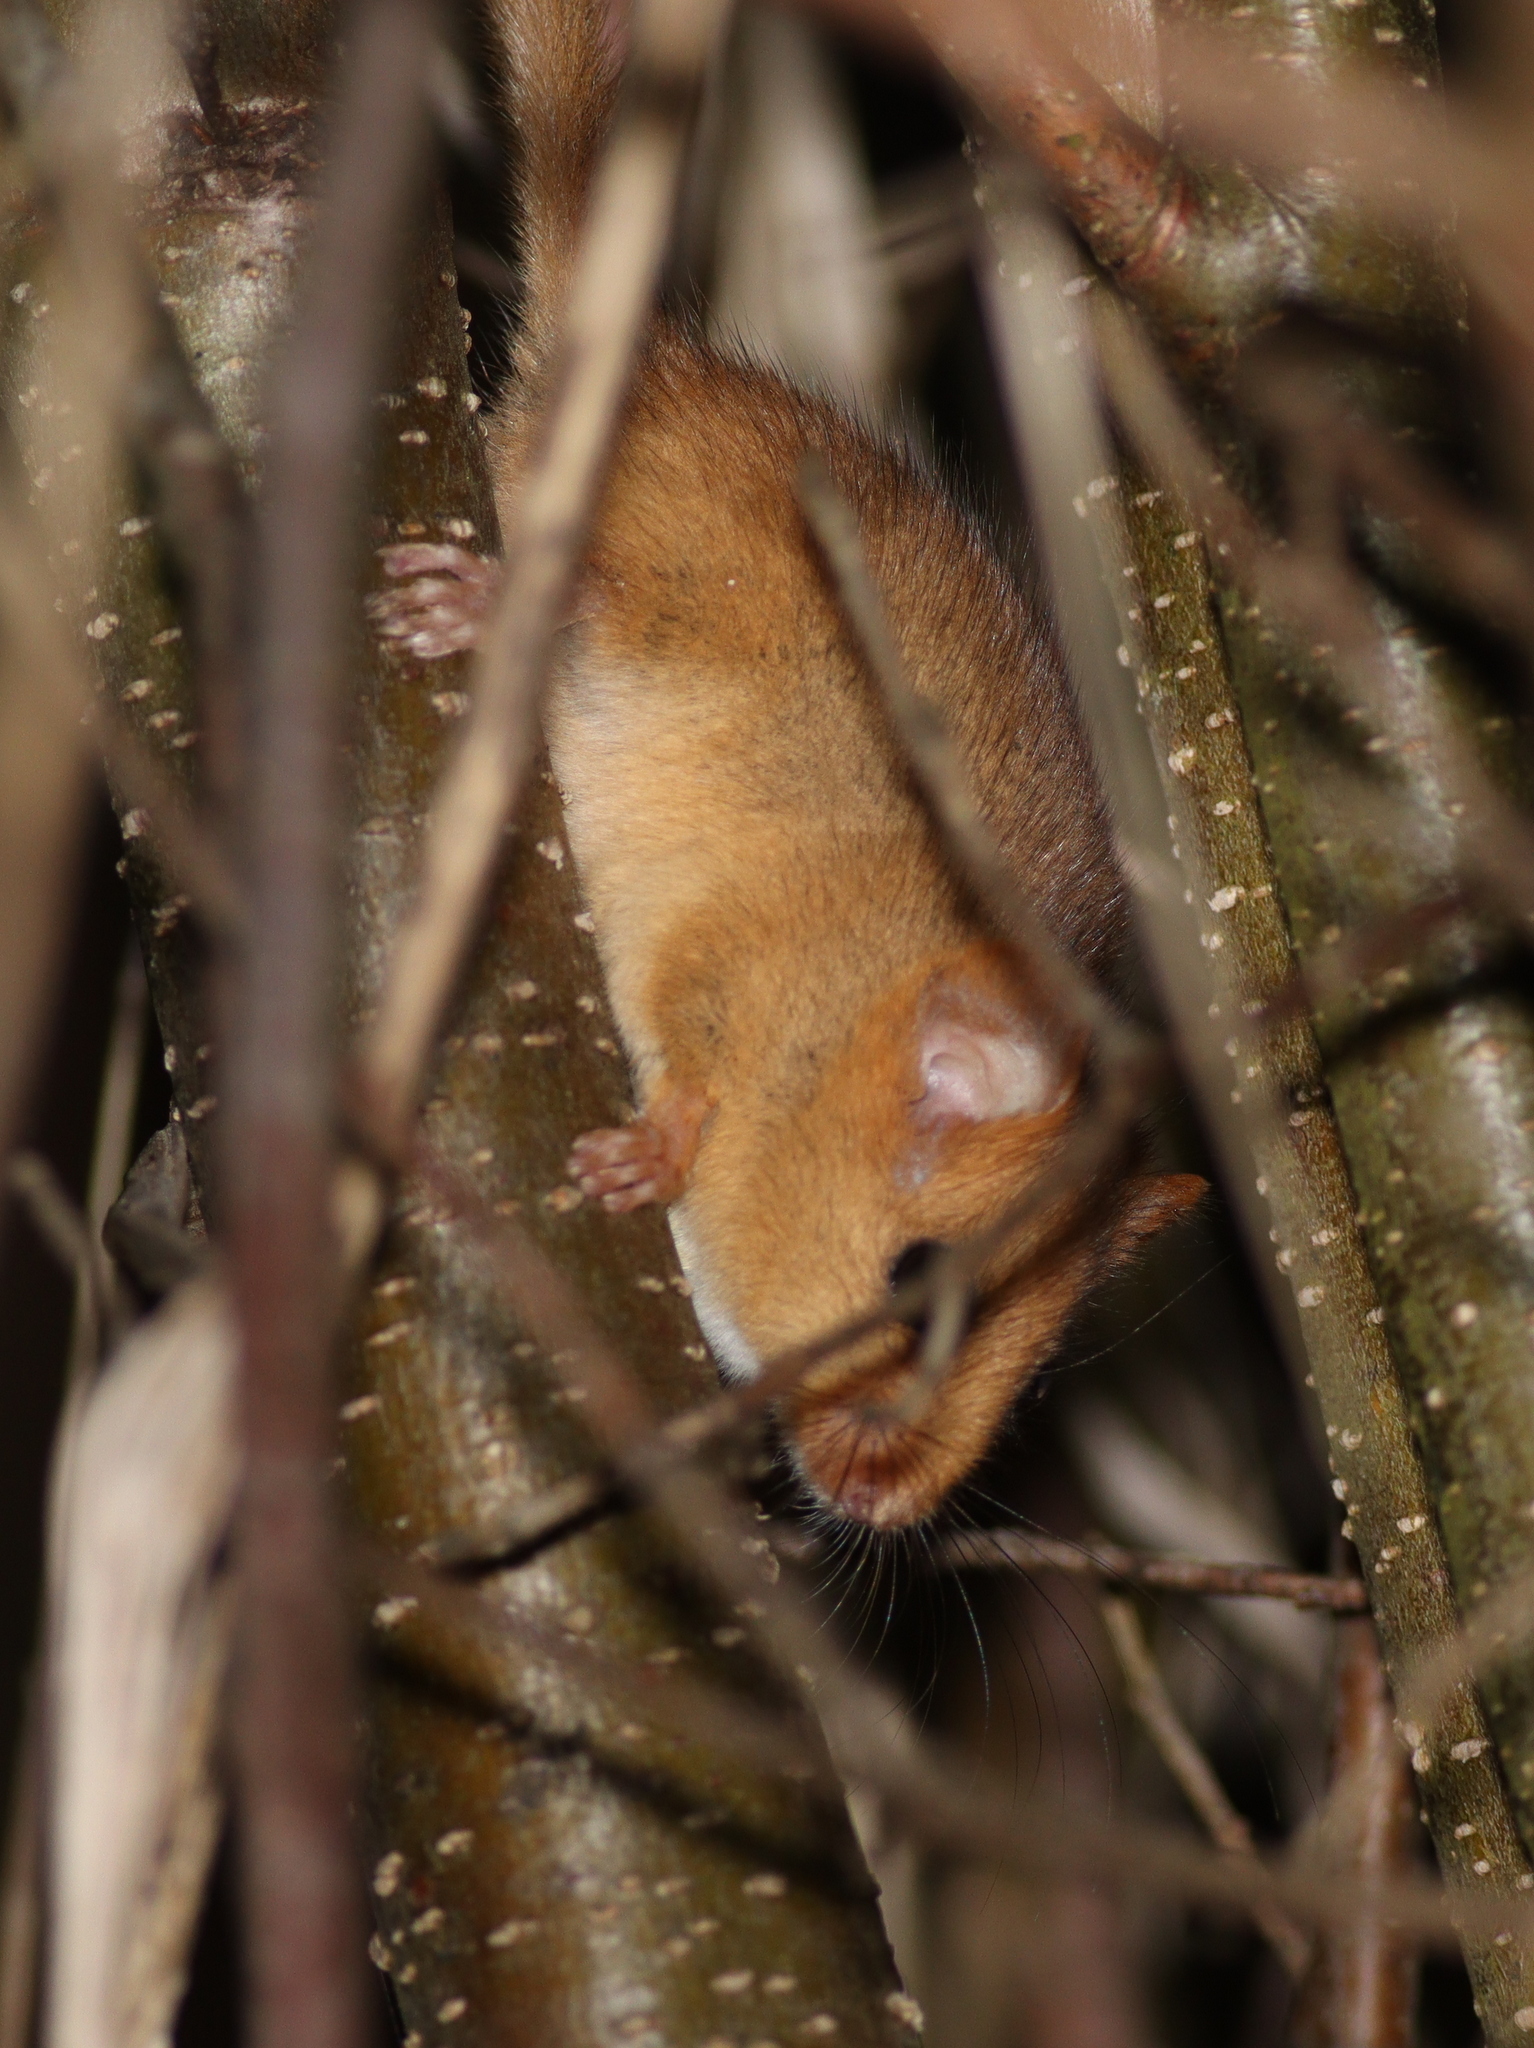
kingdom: Animalia
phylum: Chordata
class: Mammalia
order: Rodentia
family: Gliridae
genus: Muscardinus
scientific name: Muscardinus avellanarius
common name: Hazel dormouse
